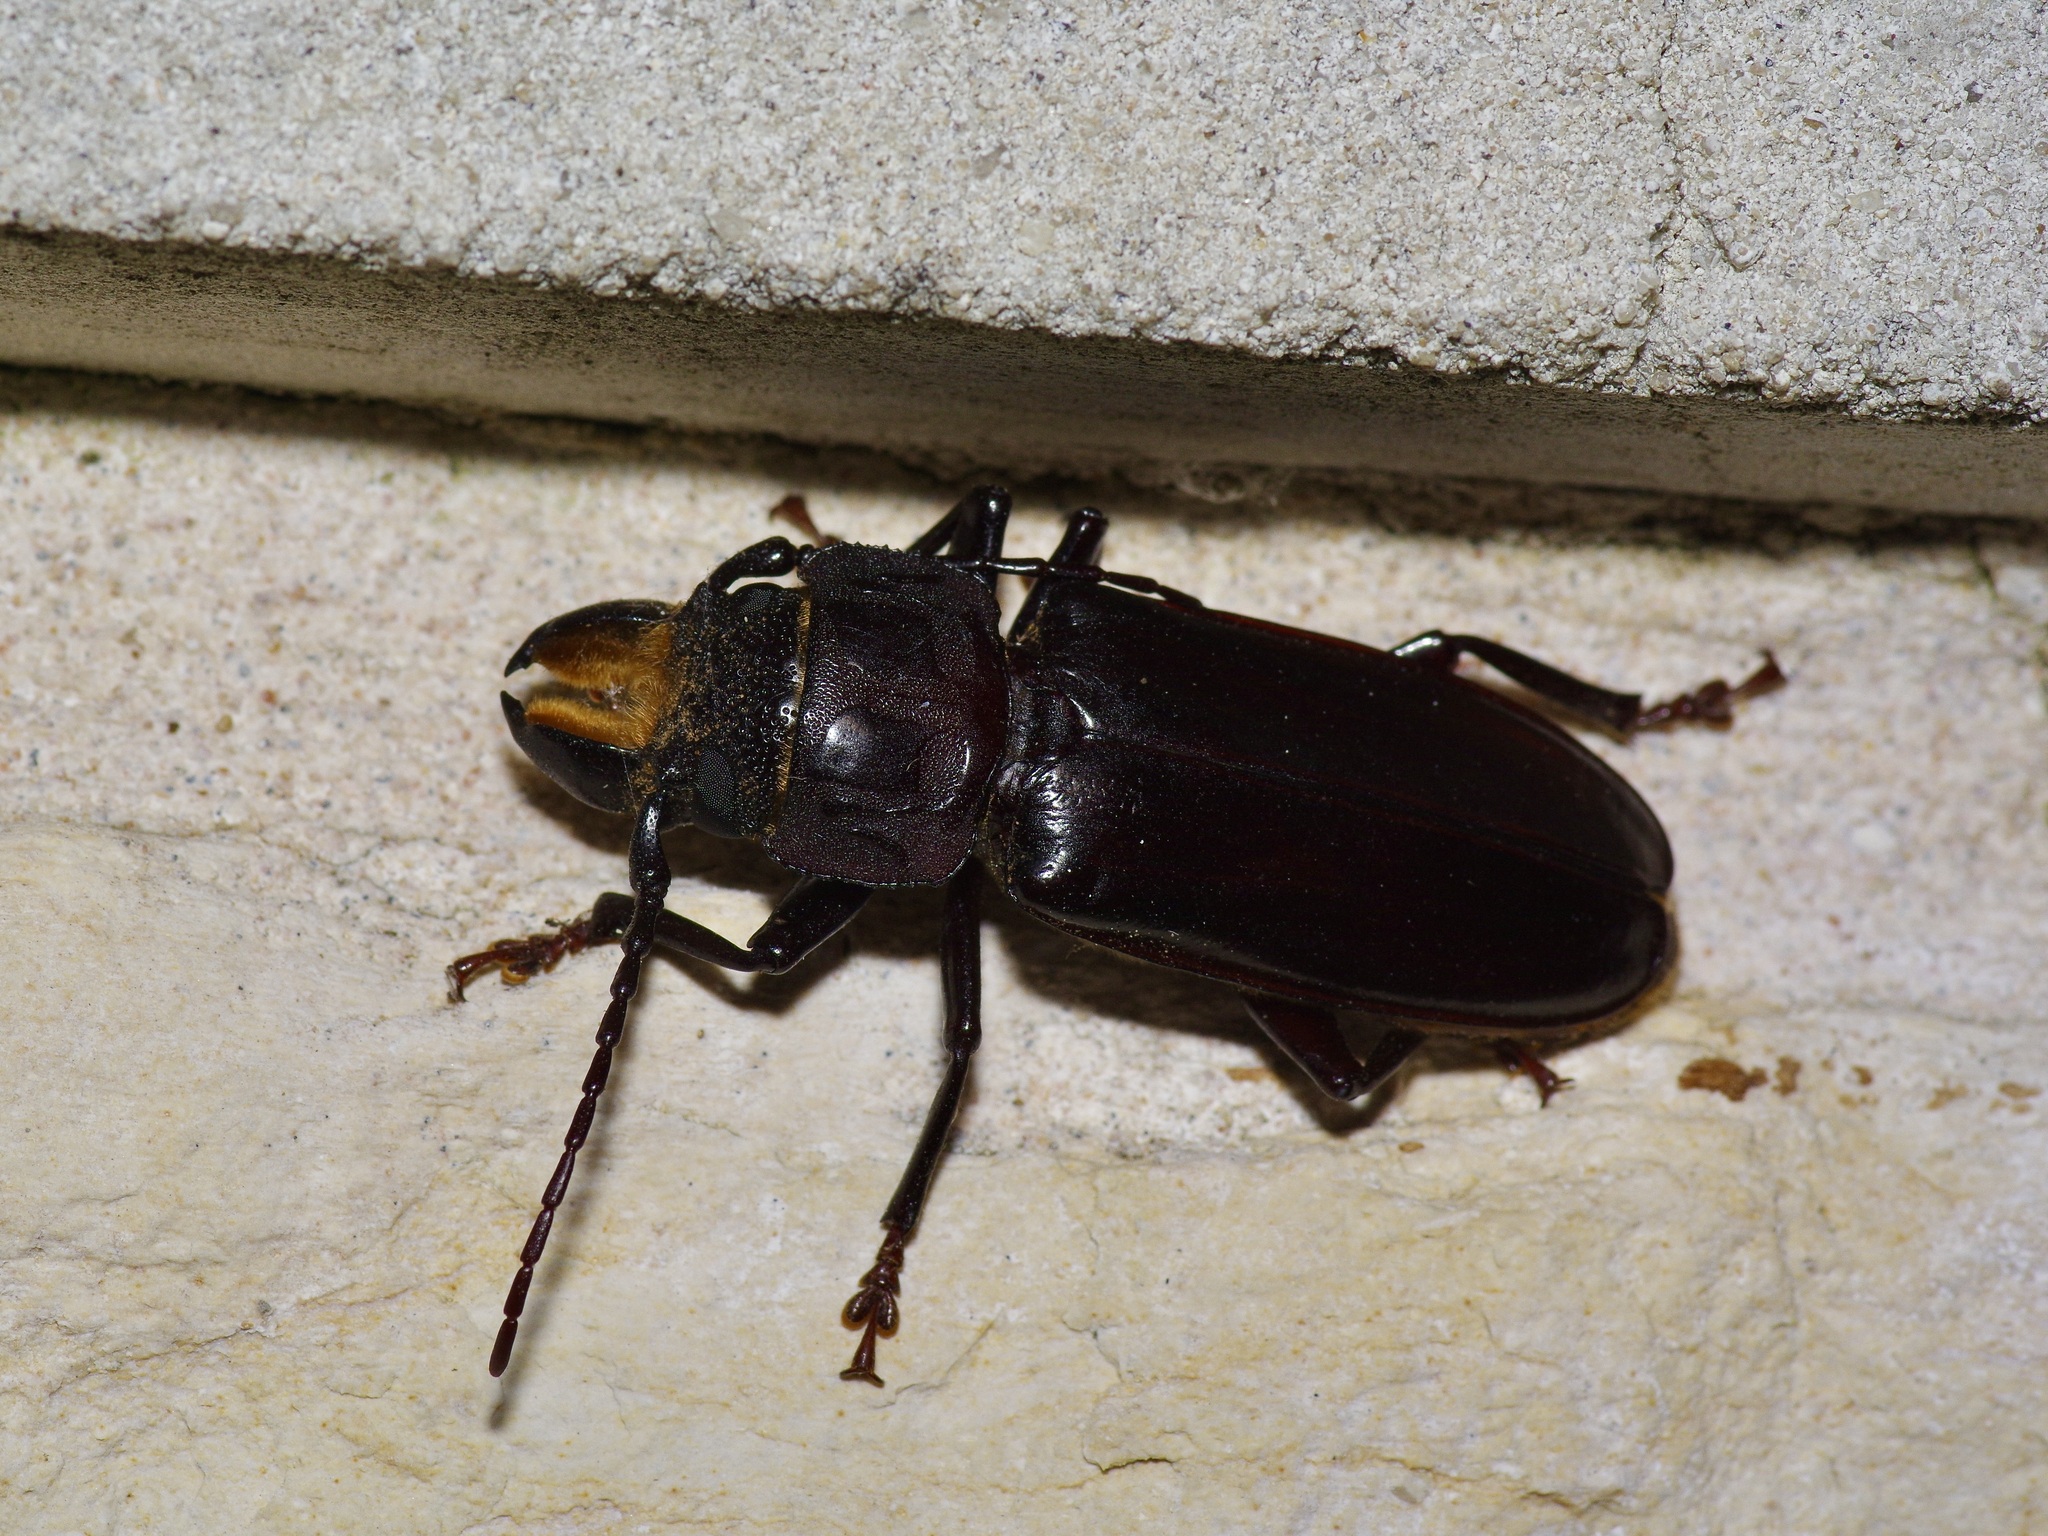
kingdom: Animalia
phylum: Arthropoda
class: Insecta
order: Coleoptera
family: Cerambycidae
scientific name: Cerambycidae
